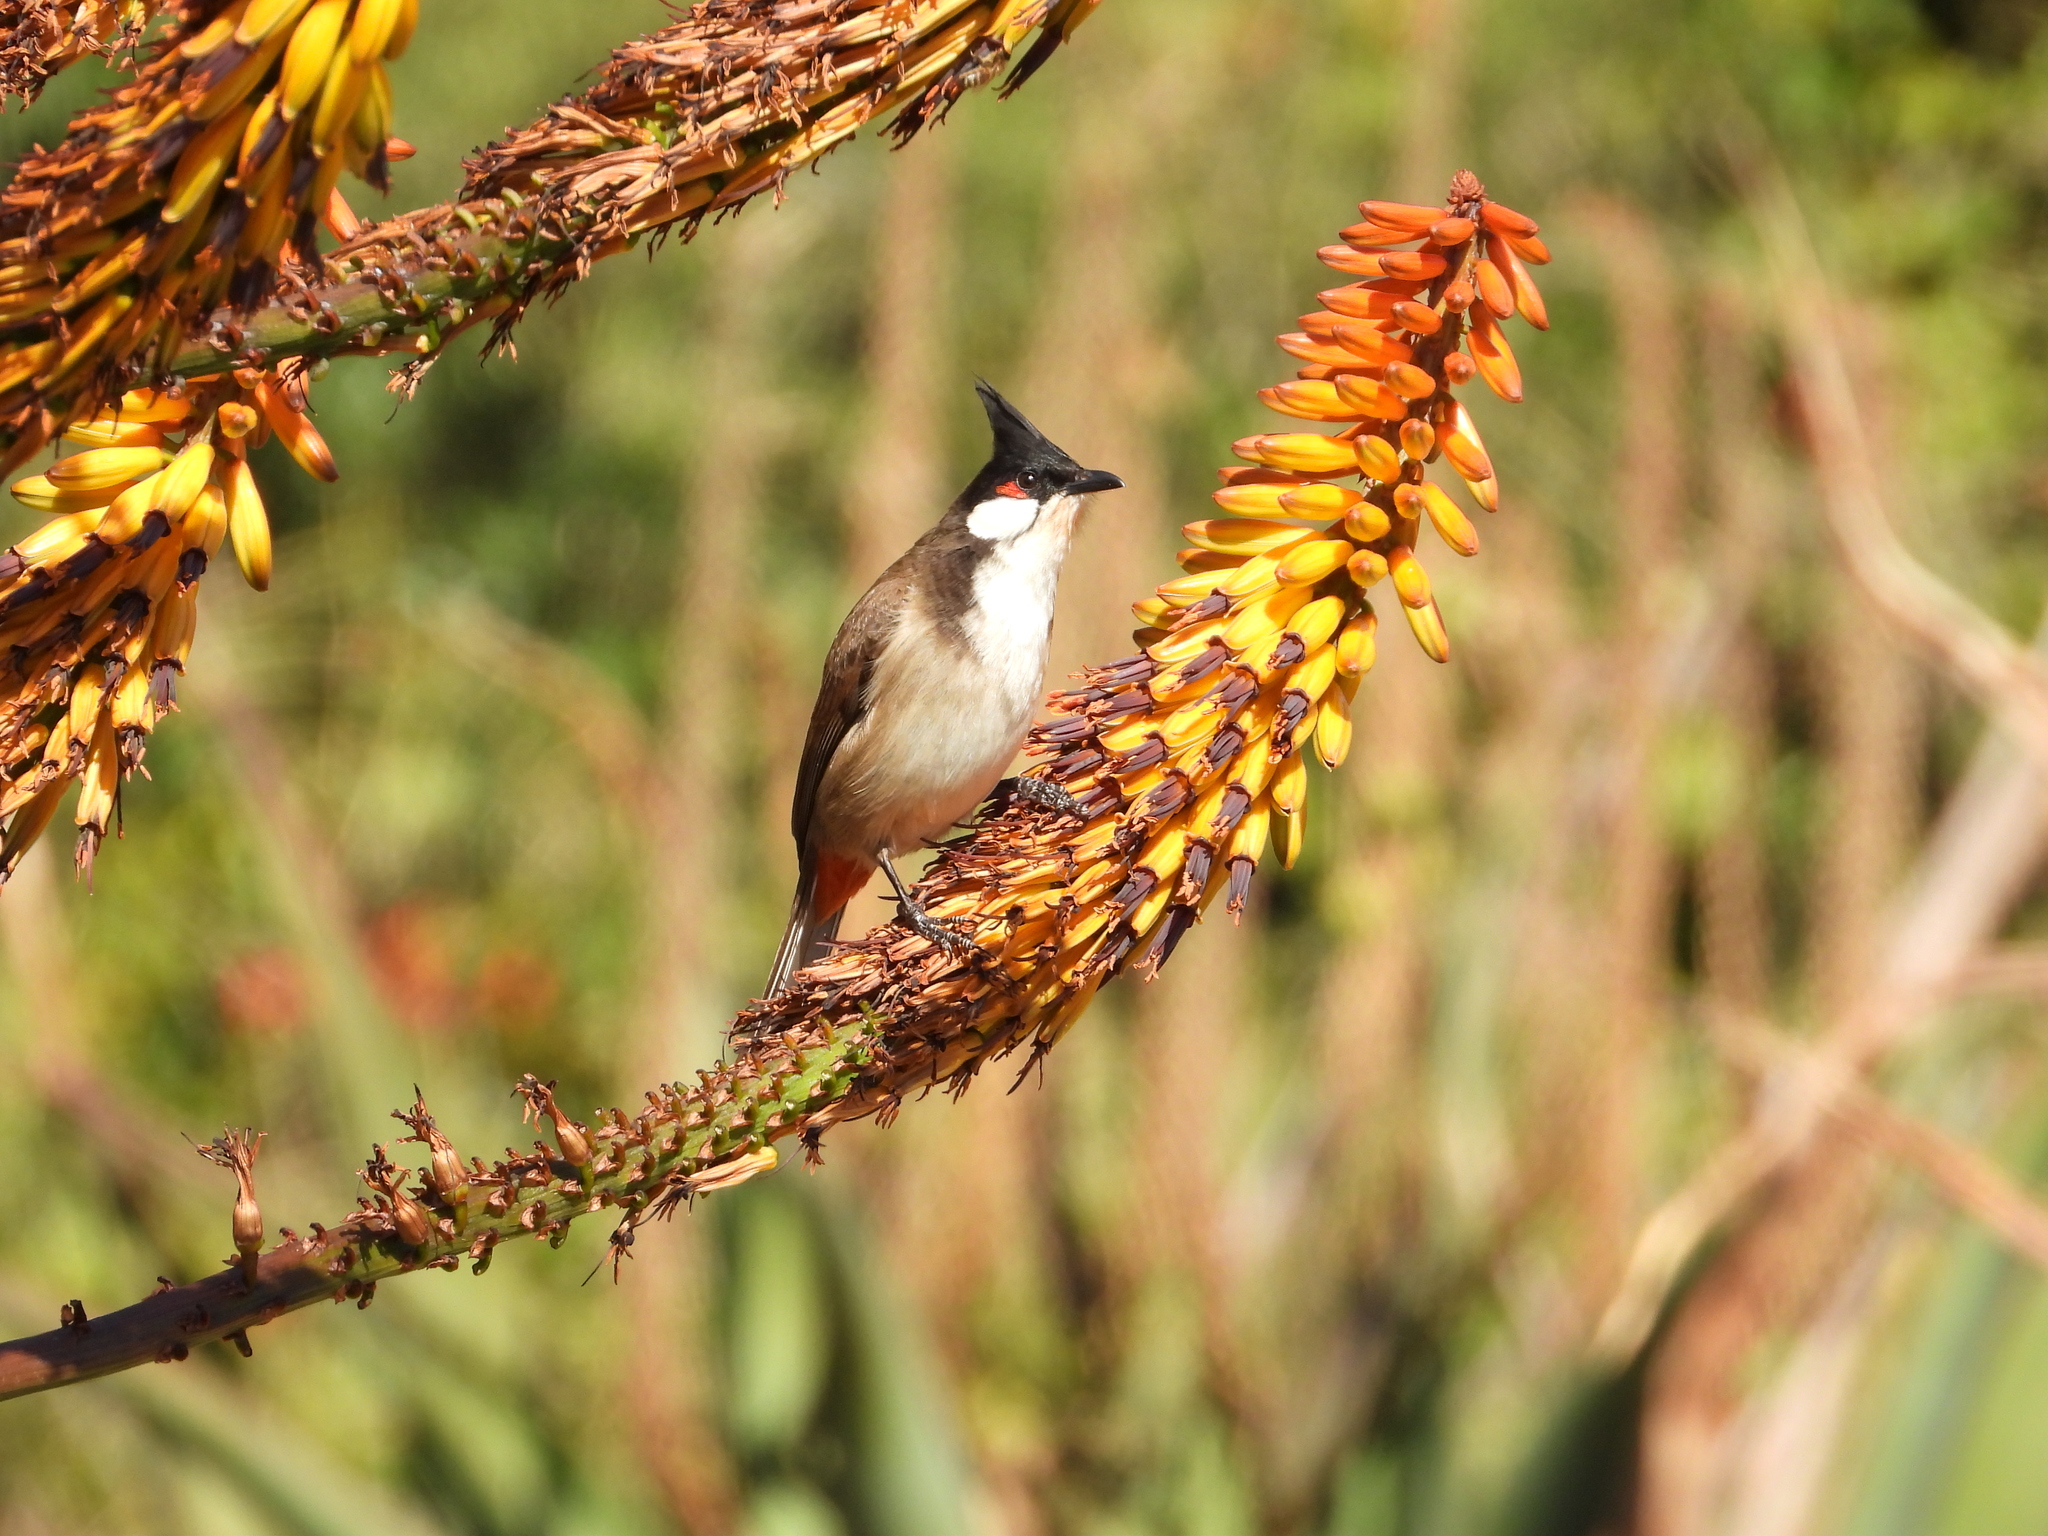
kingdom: Animalia
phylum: Chordata
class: Aves
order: Passeriformes
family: Pycnonotidae
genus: Pycnonotus
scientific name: Pycnonotus jocosus
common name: Red-whiskered bulbul
